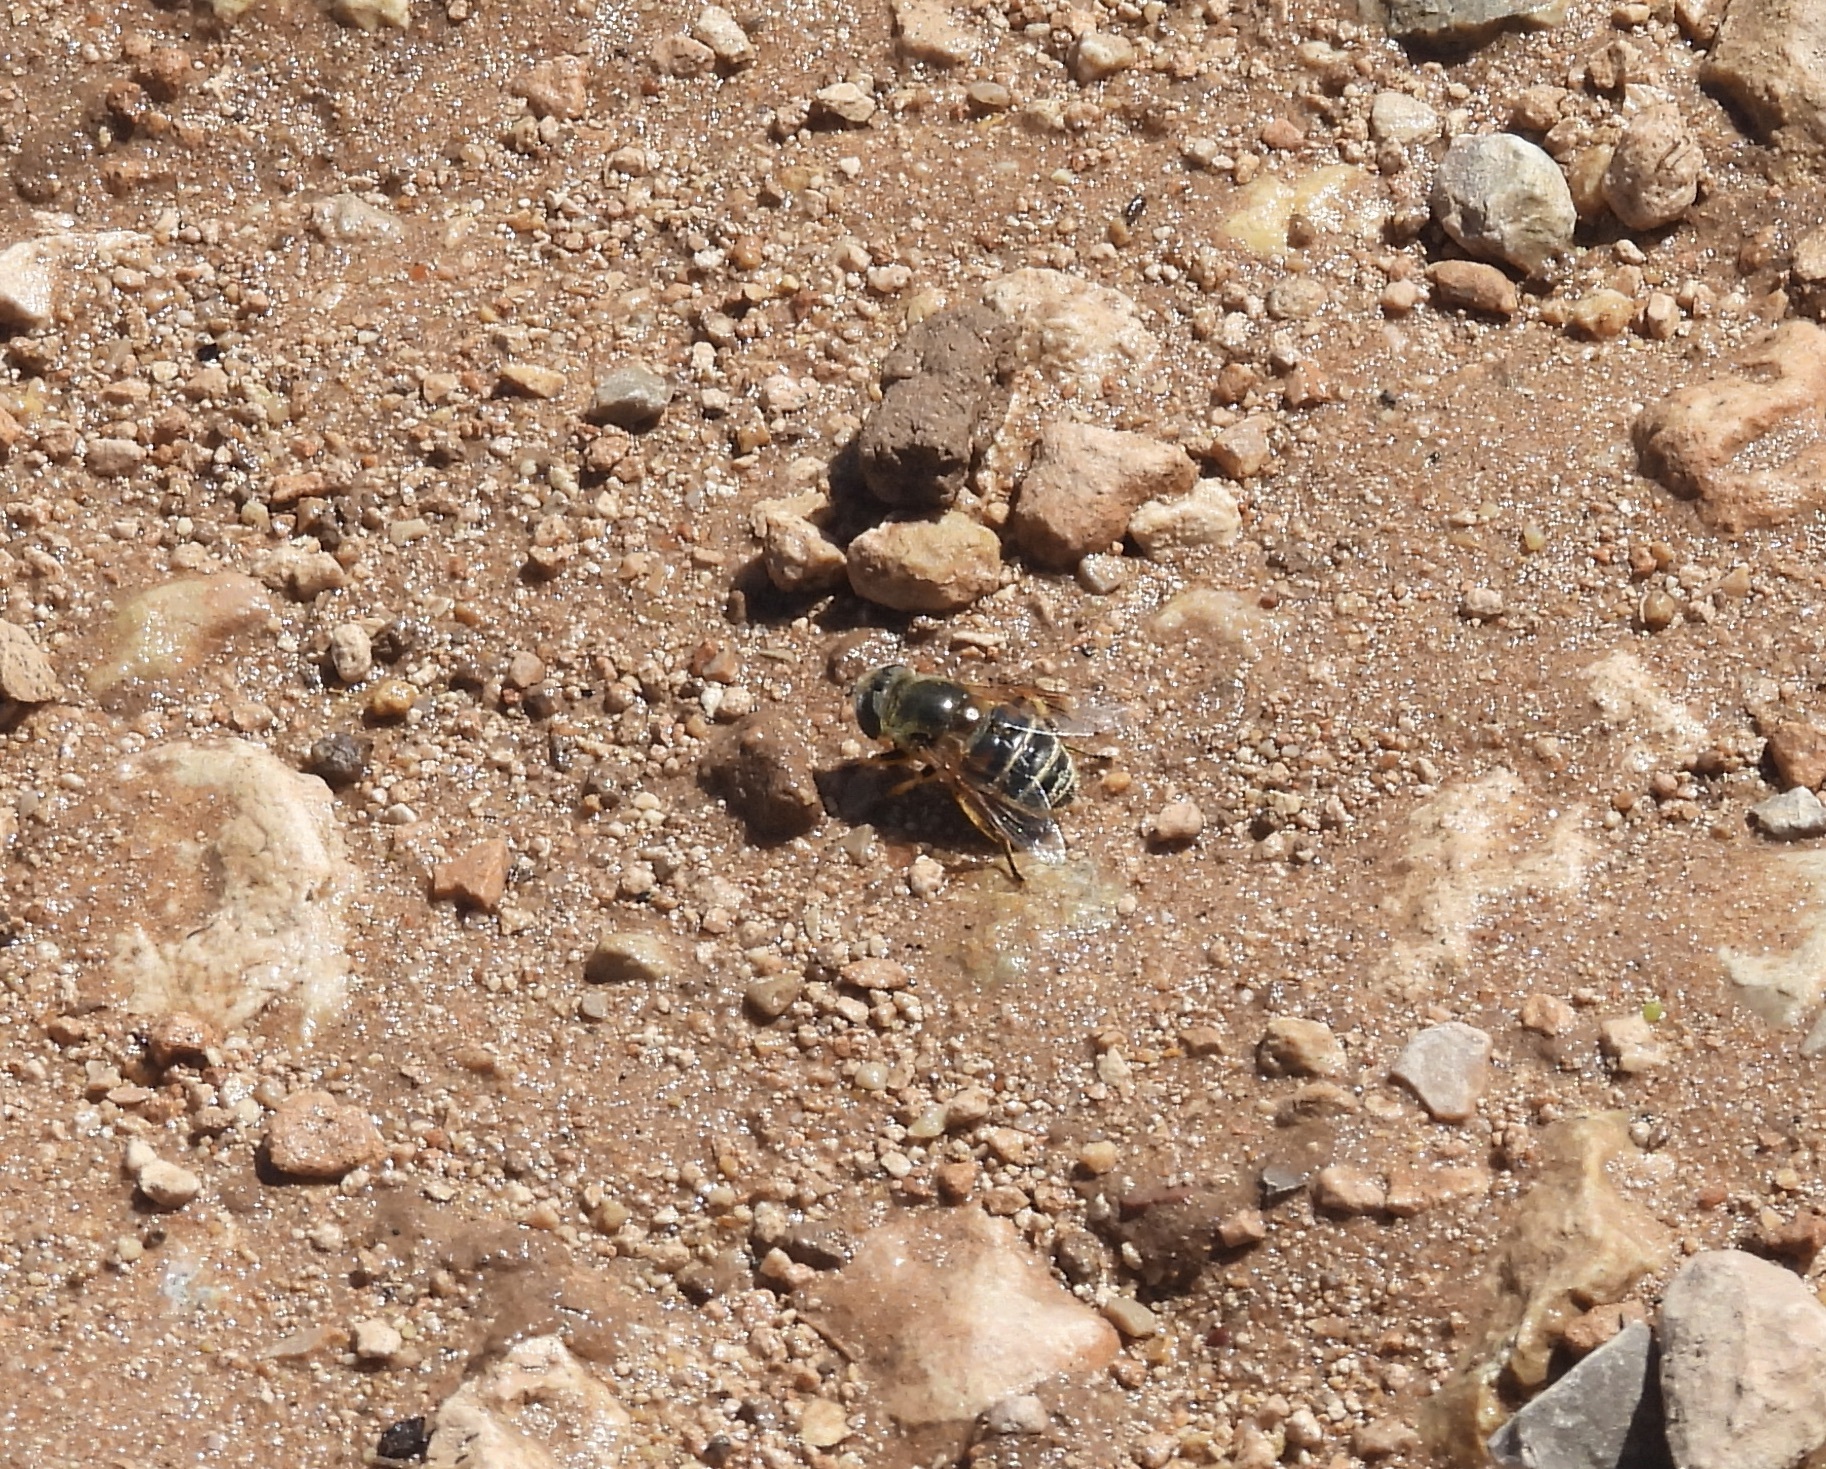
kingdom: Animalia
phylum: Arthropoda
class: Insecta
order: Diptera
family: Syrphidae
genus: Eristalis
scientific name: Eristalis stipator
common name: Yellow-shouldered drone fly
